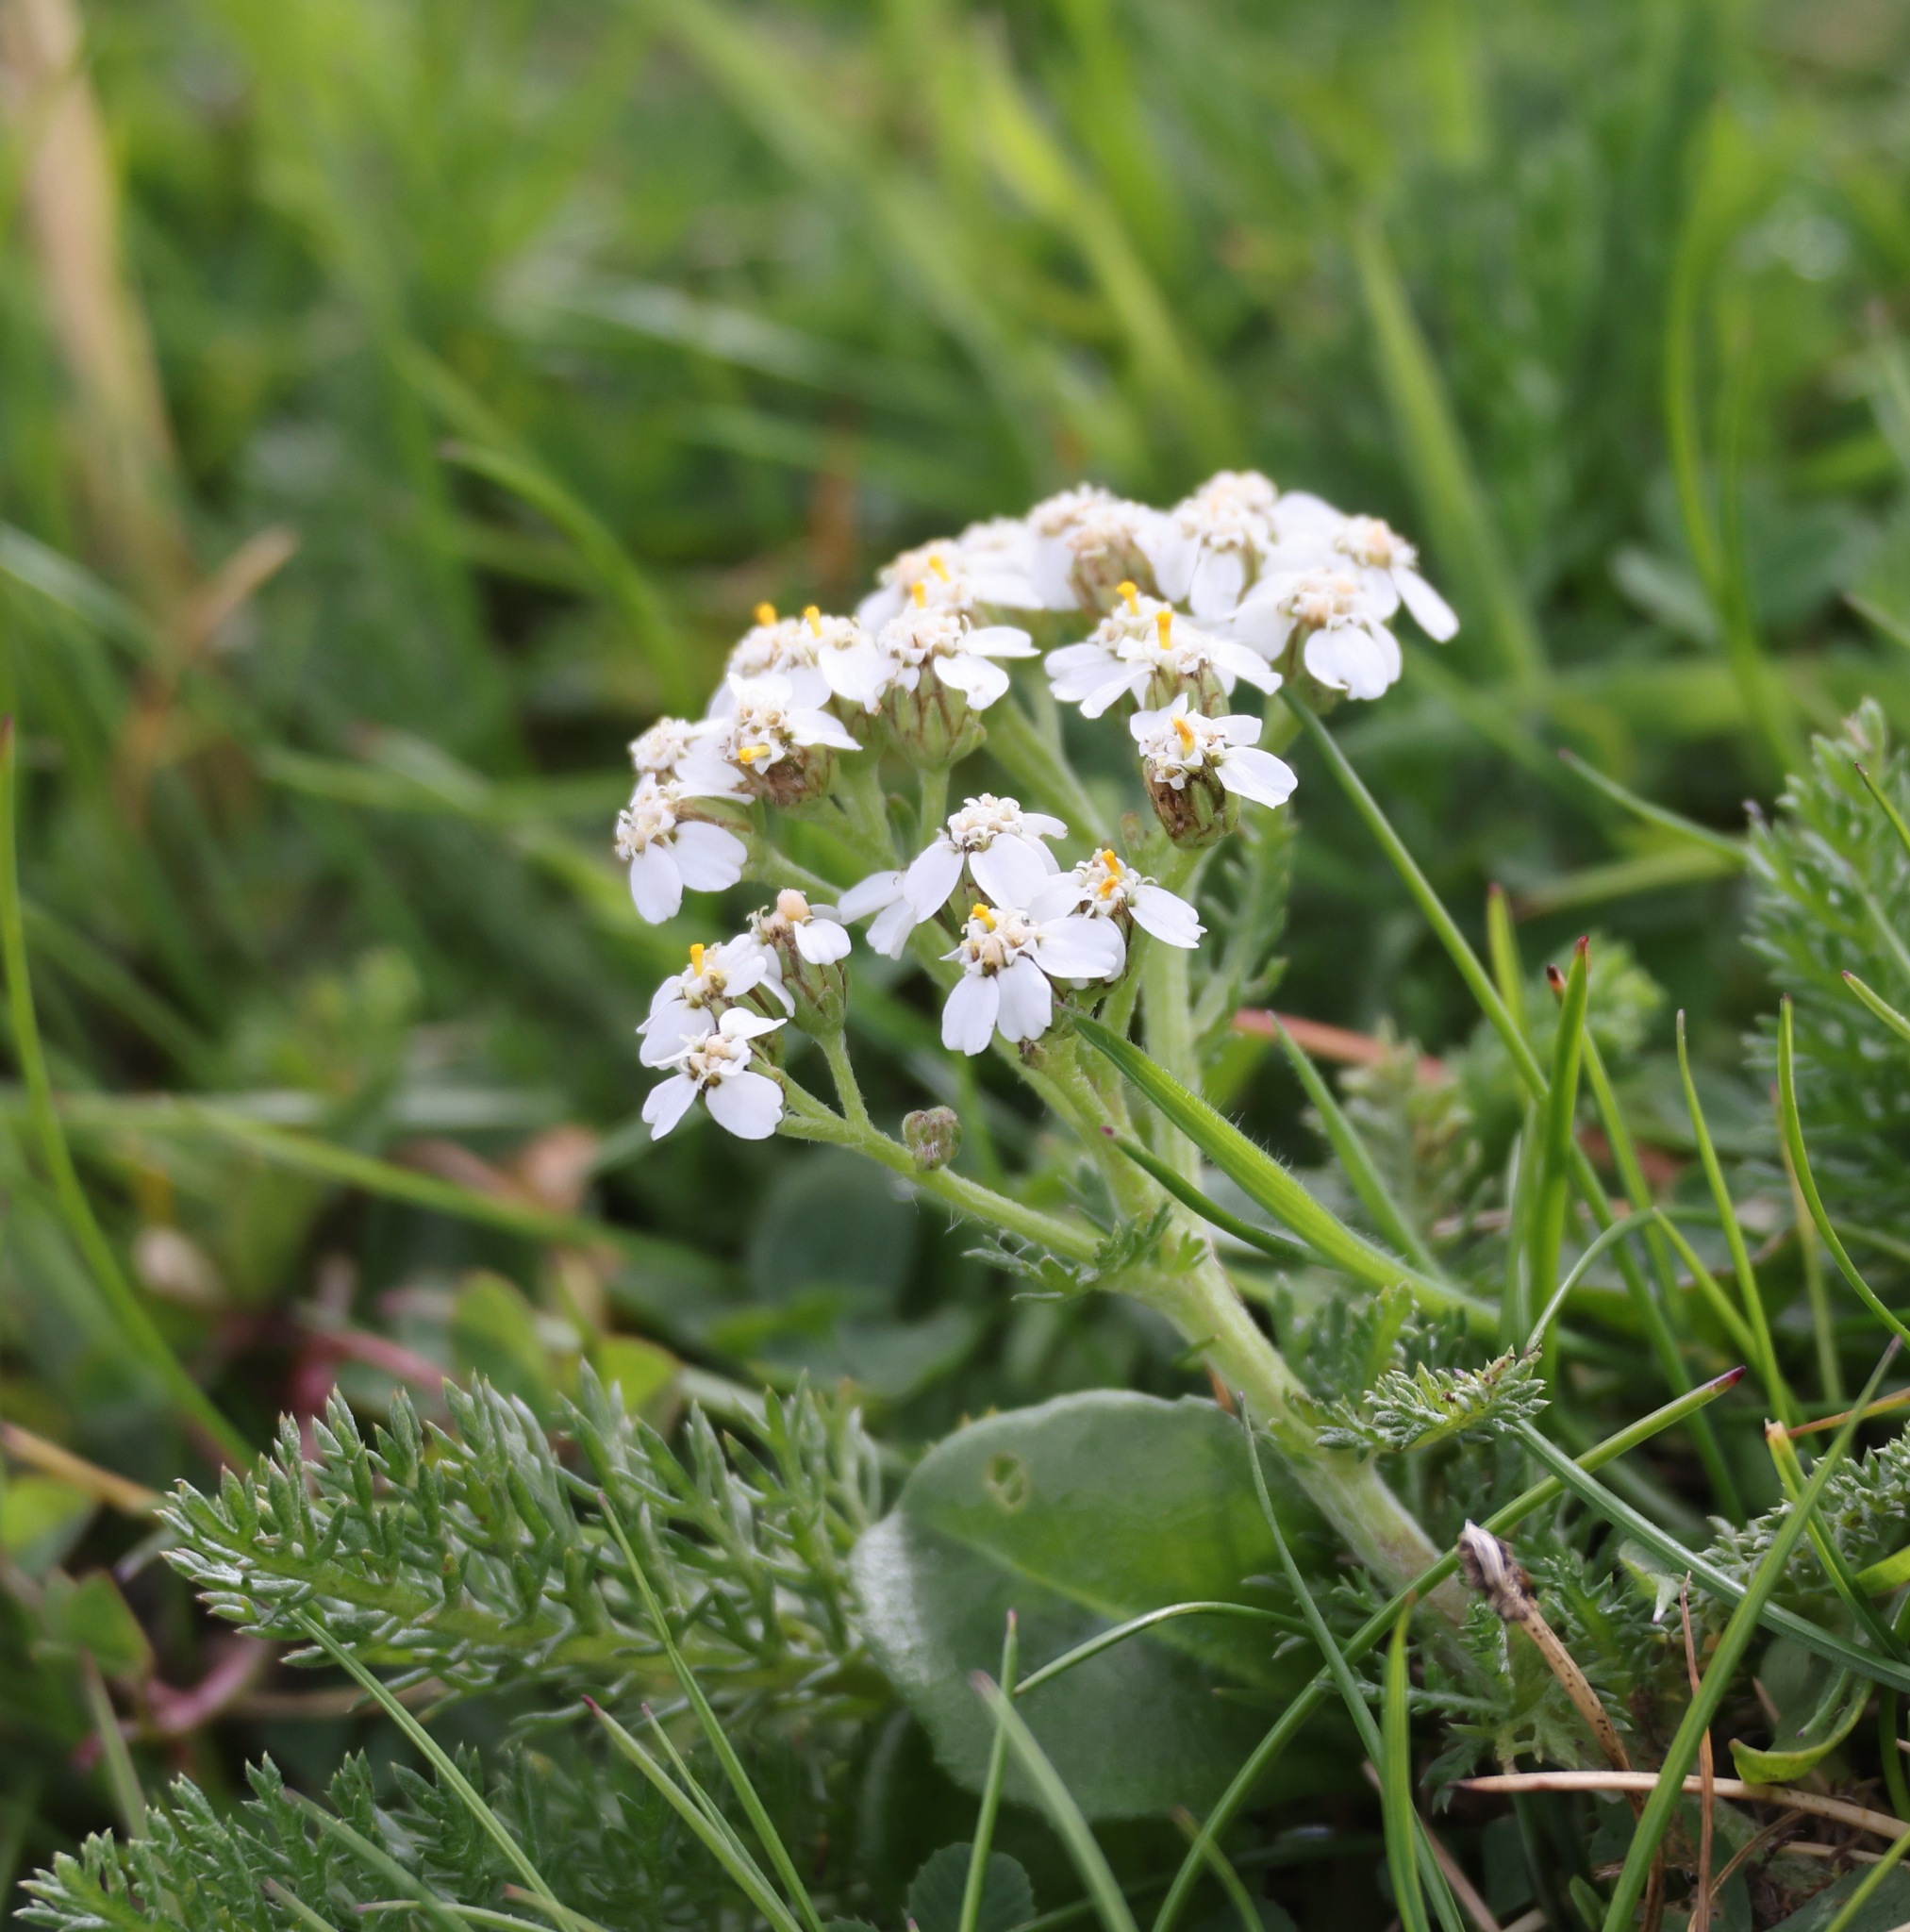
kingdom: Plantae
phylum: Tracheophyta
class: Magnoliopsida
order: Asterales
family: Asteraceae
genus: Achillea
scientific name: Achillea millefolium
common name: Yarrow
